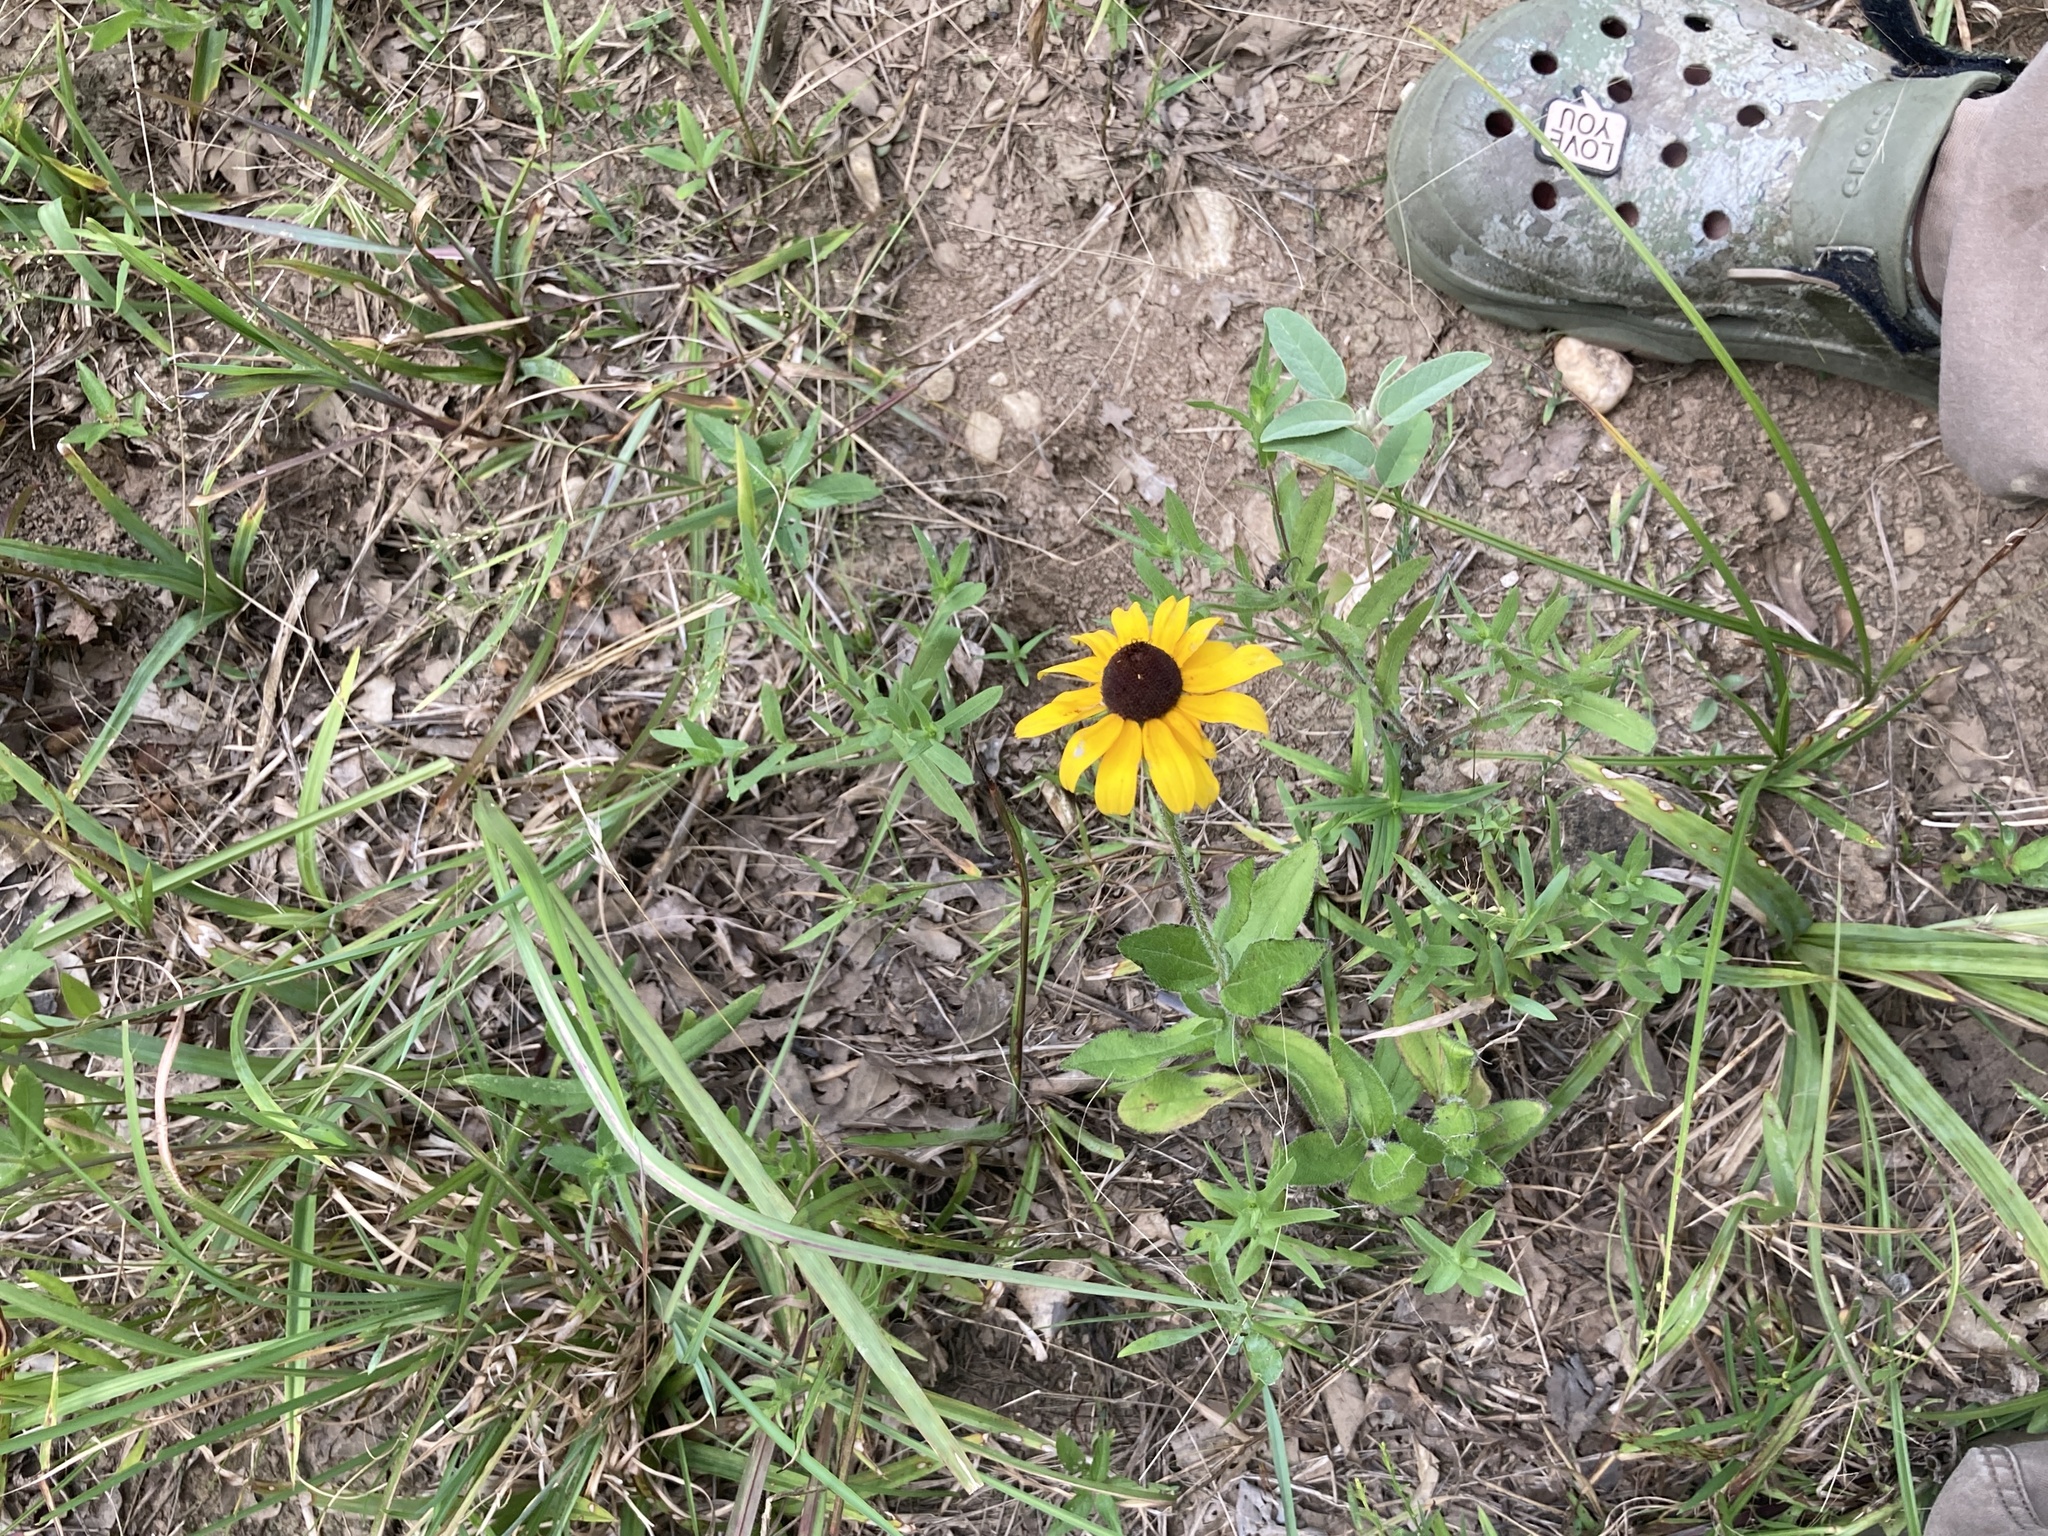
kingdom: Plantae
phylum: Tracheophyta
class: Magnoliopsida
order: Asterales
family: Asteraceae
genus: Rudbeckia
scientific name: Rudbeckia hirta
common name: Black-eyed-susan
